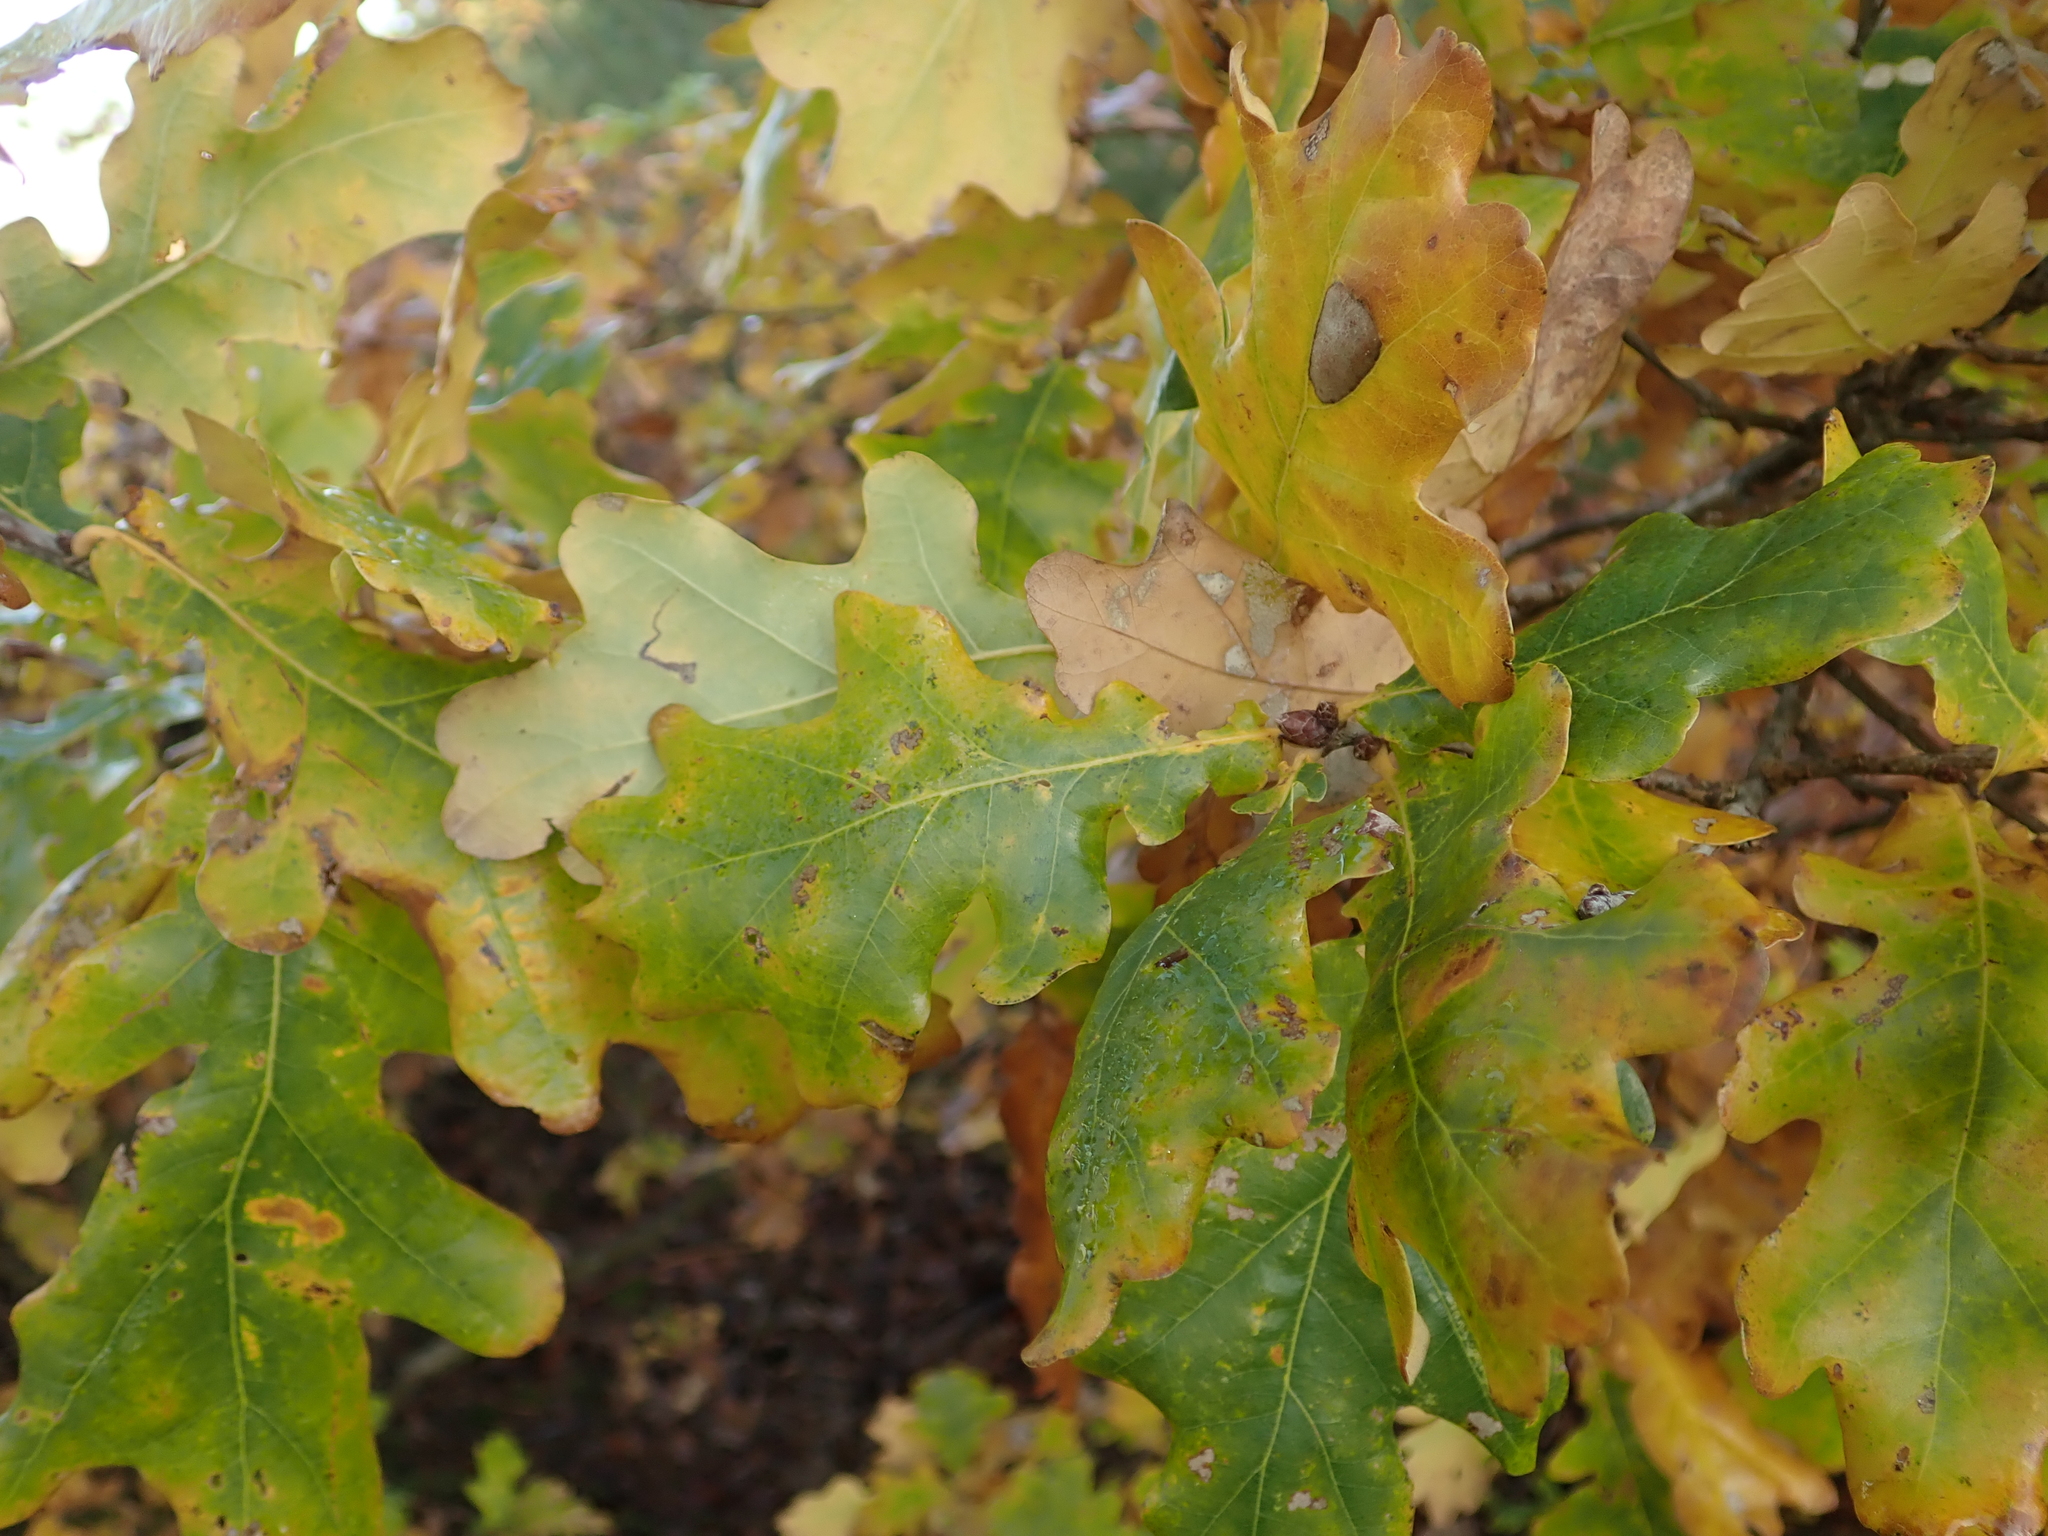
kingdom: Plantae
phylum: Tracheophyta
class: Magnoliopsida
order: Fagales
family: Fagaceae
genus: Quercus
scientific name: Quercus robur
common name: Pedunculate oak
